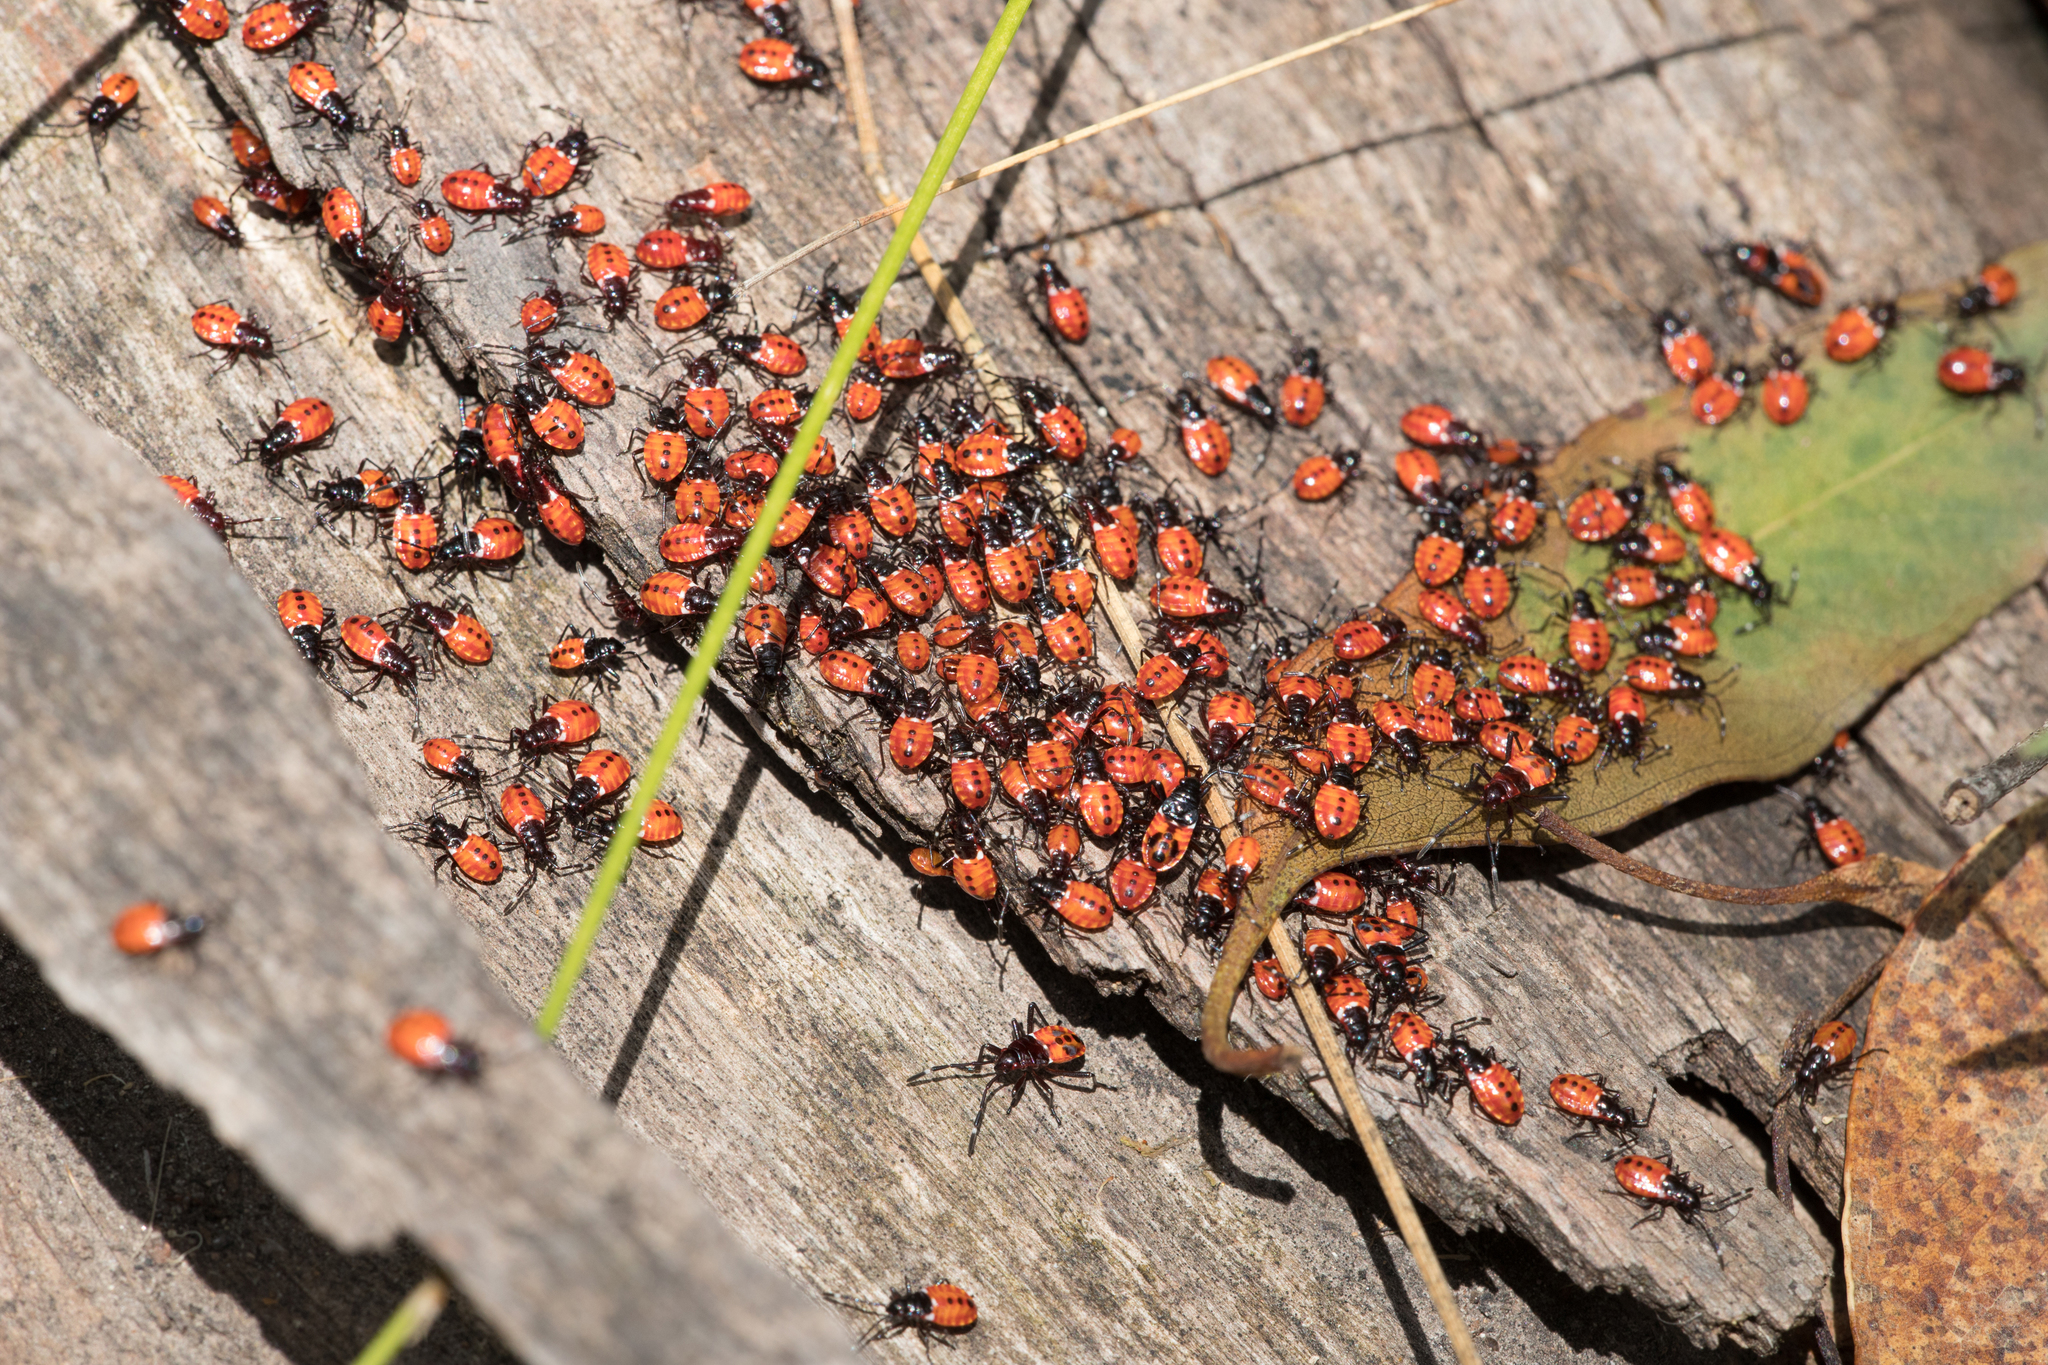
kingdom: Animalia
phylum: Arthropoda
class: Insecta
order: Hemiptera
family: Pyrrhocoridae
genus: Dindymus
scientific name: Dindymus
